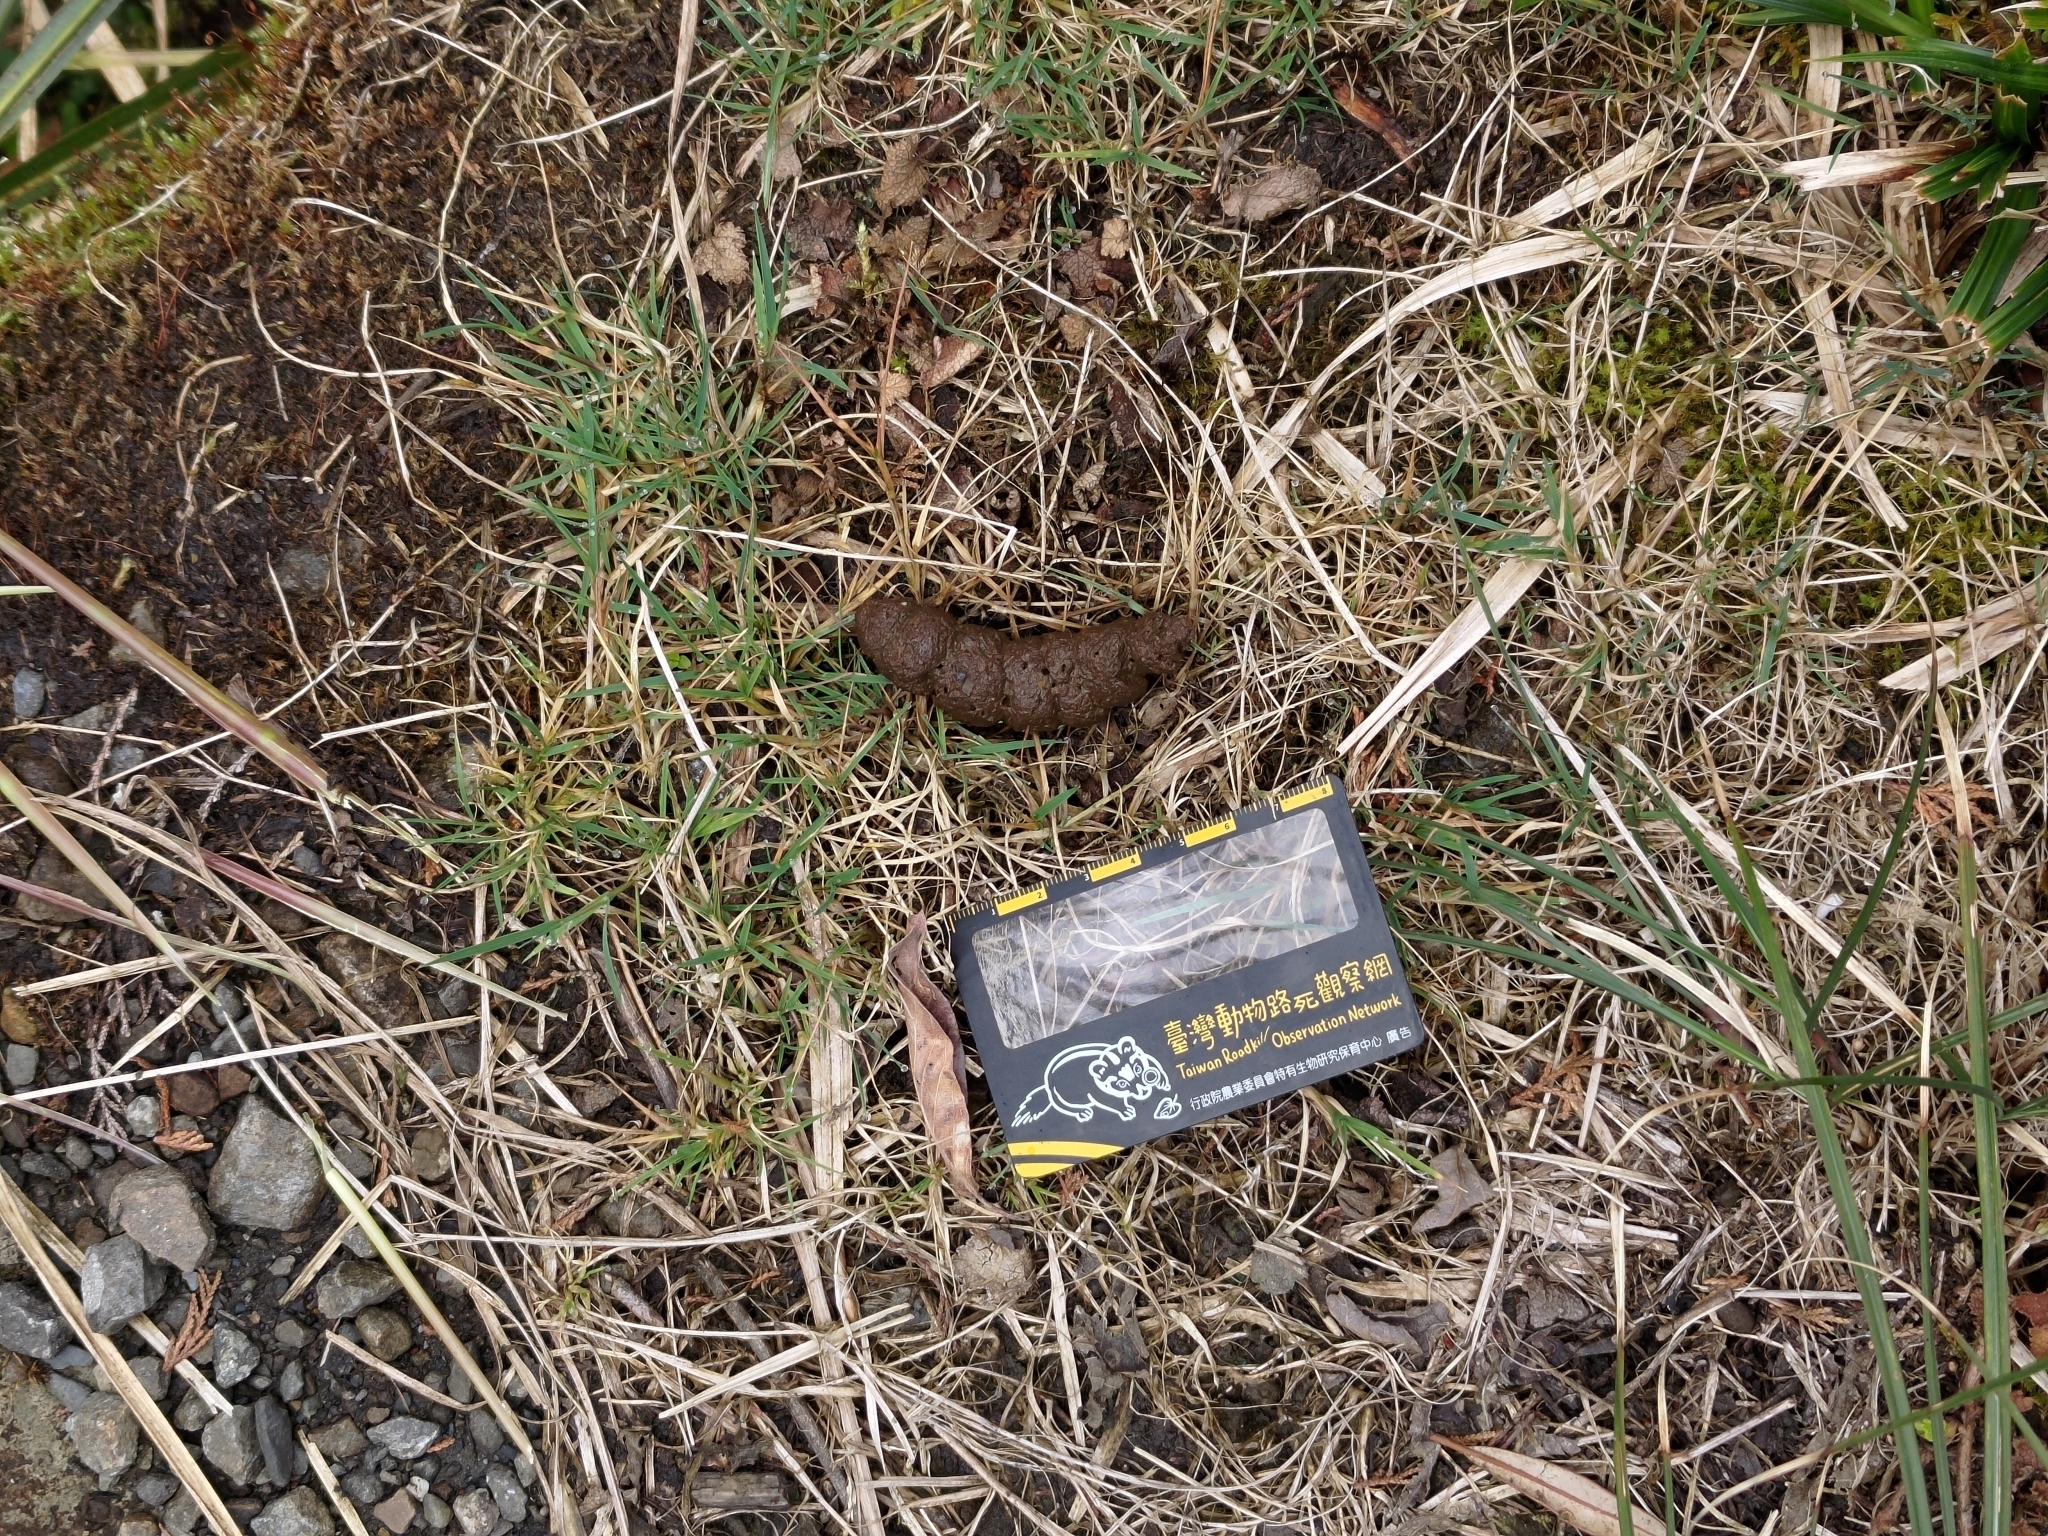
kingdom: Animalia
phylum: Chordata
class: Mammalia
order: Artiodactyla
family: Suidae
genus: Sus
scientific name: Sus scrofa
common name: Wild boar
